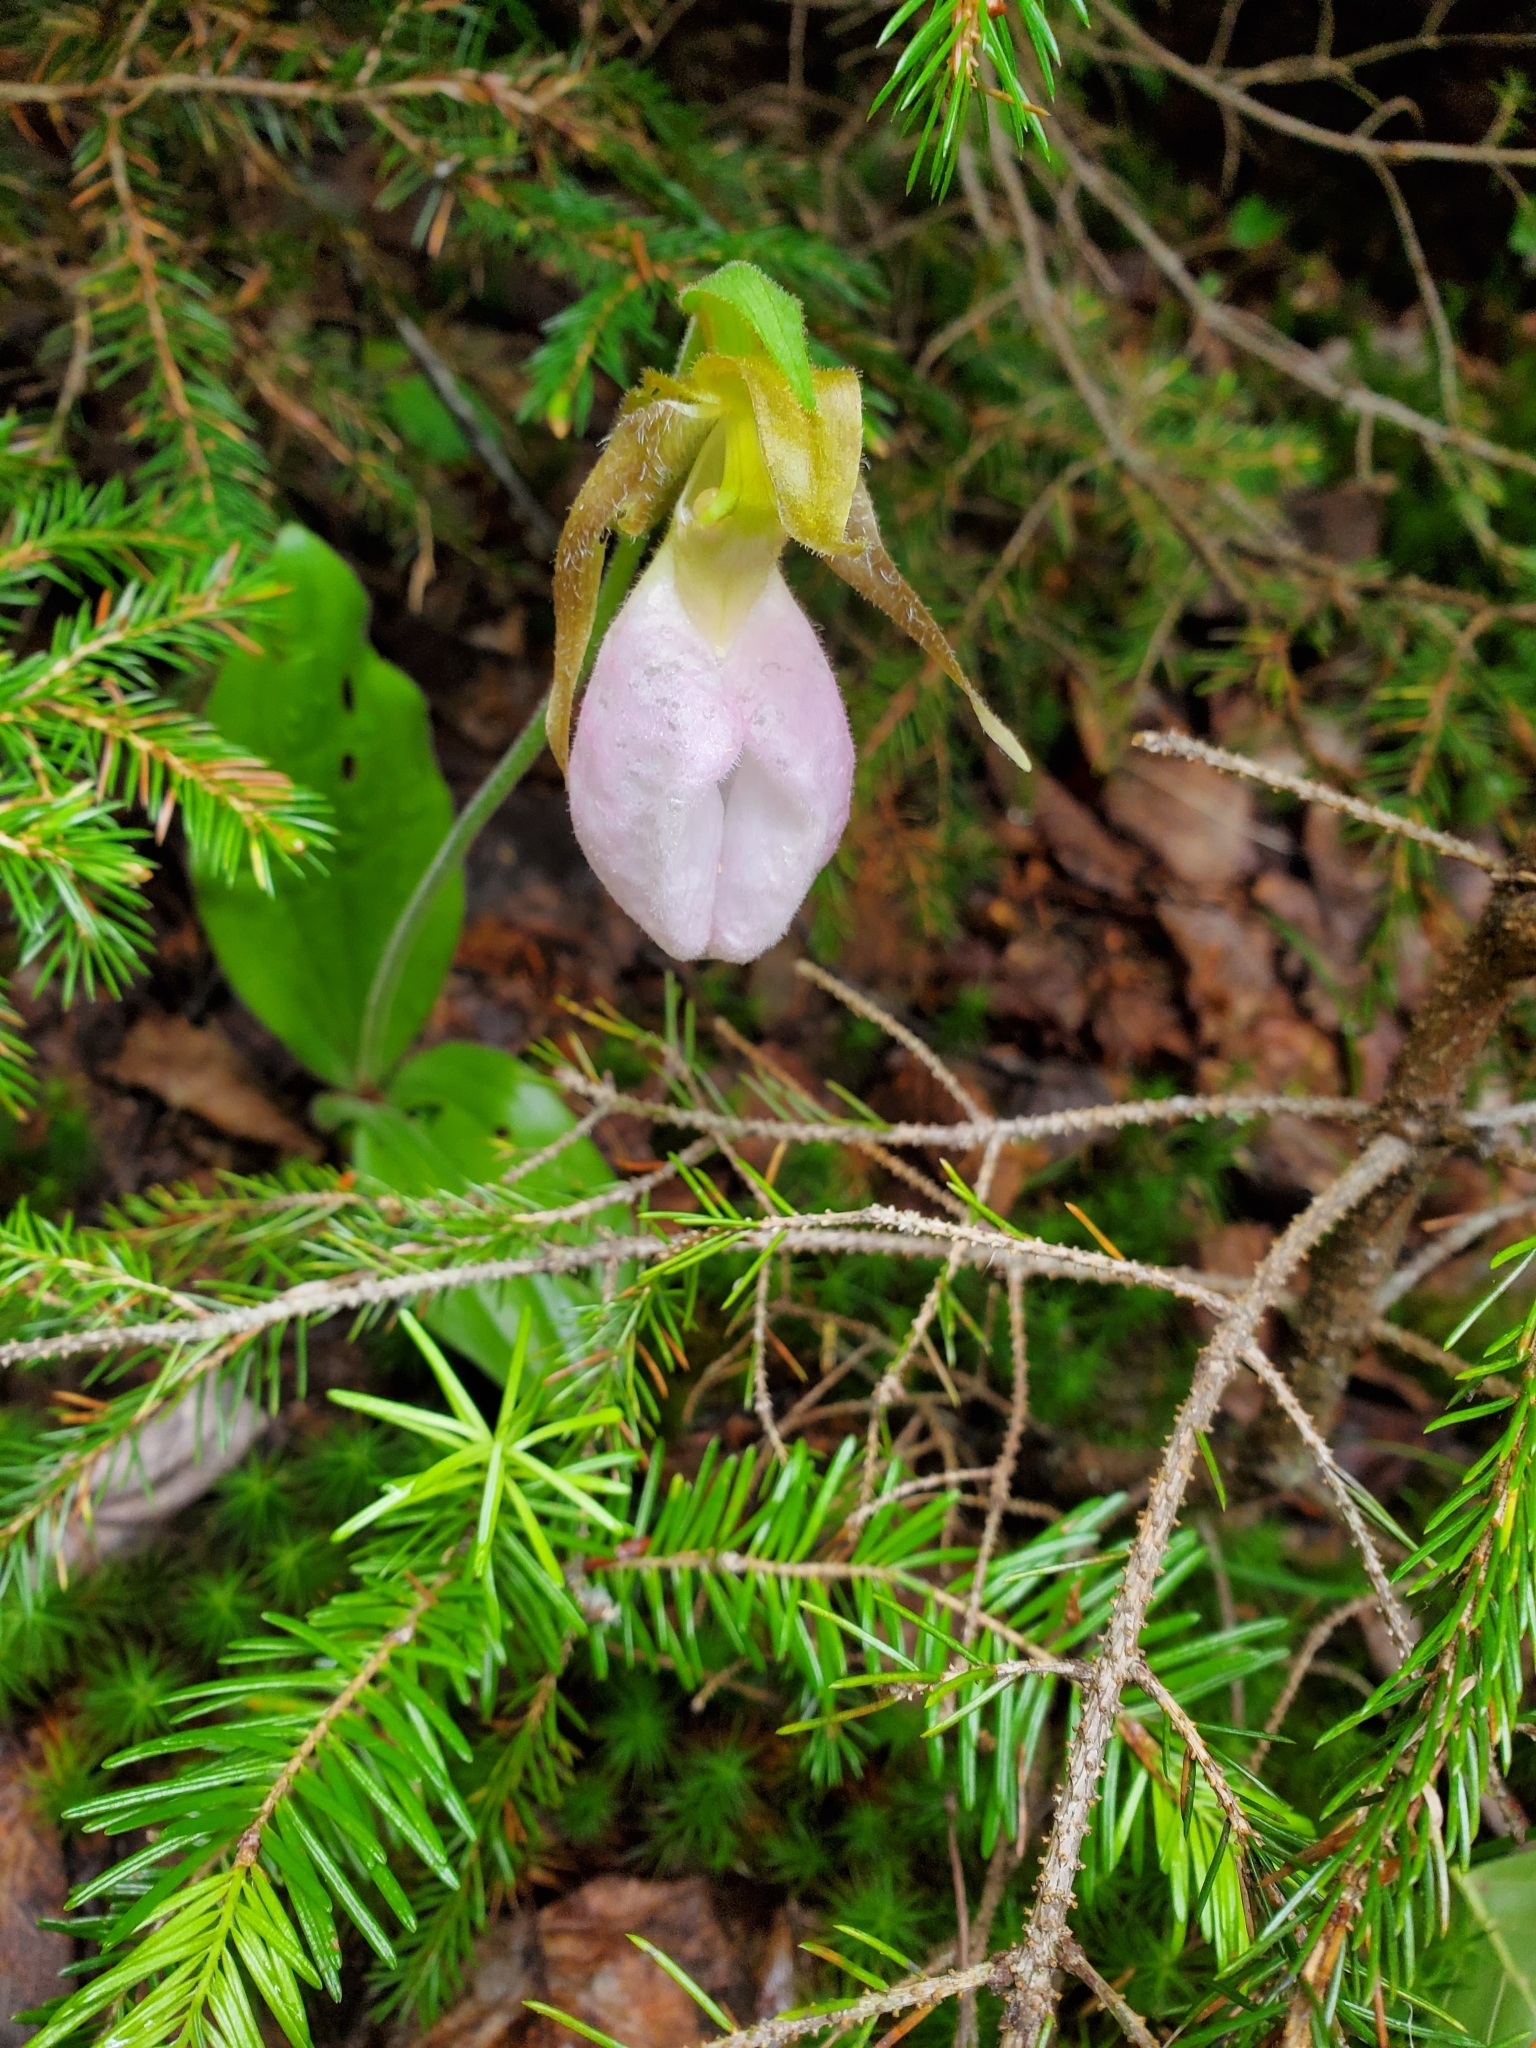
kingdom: Plantae
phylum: Tracheophyta
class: Liliopsida
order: Asparagales
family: Orchidaceae
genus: Cypripedium
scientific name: Cypripedium acaule
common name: Pink lady's-slipper
